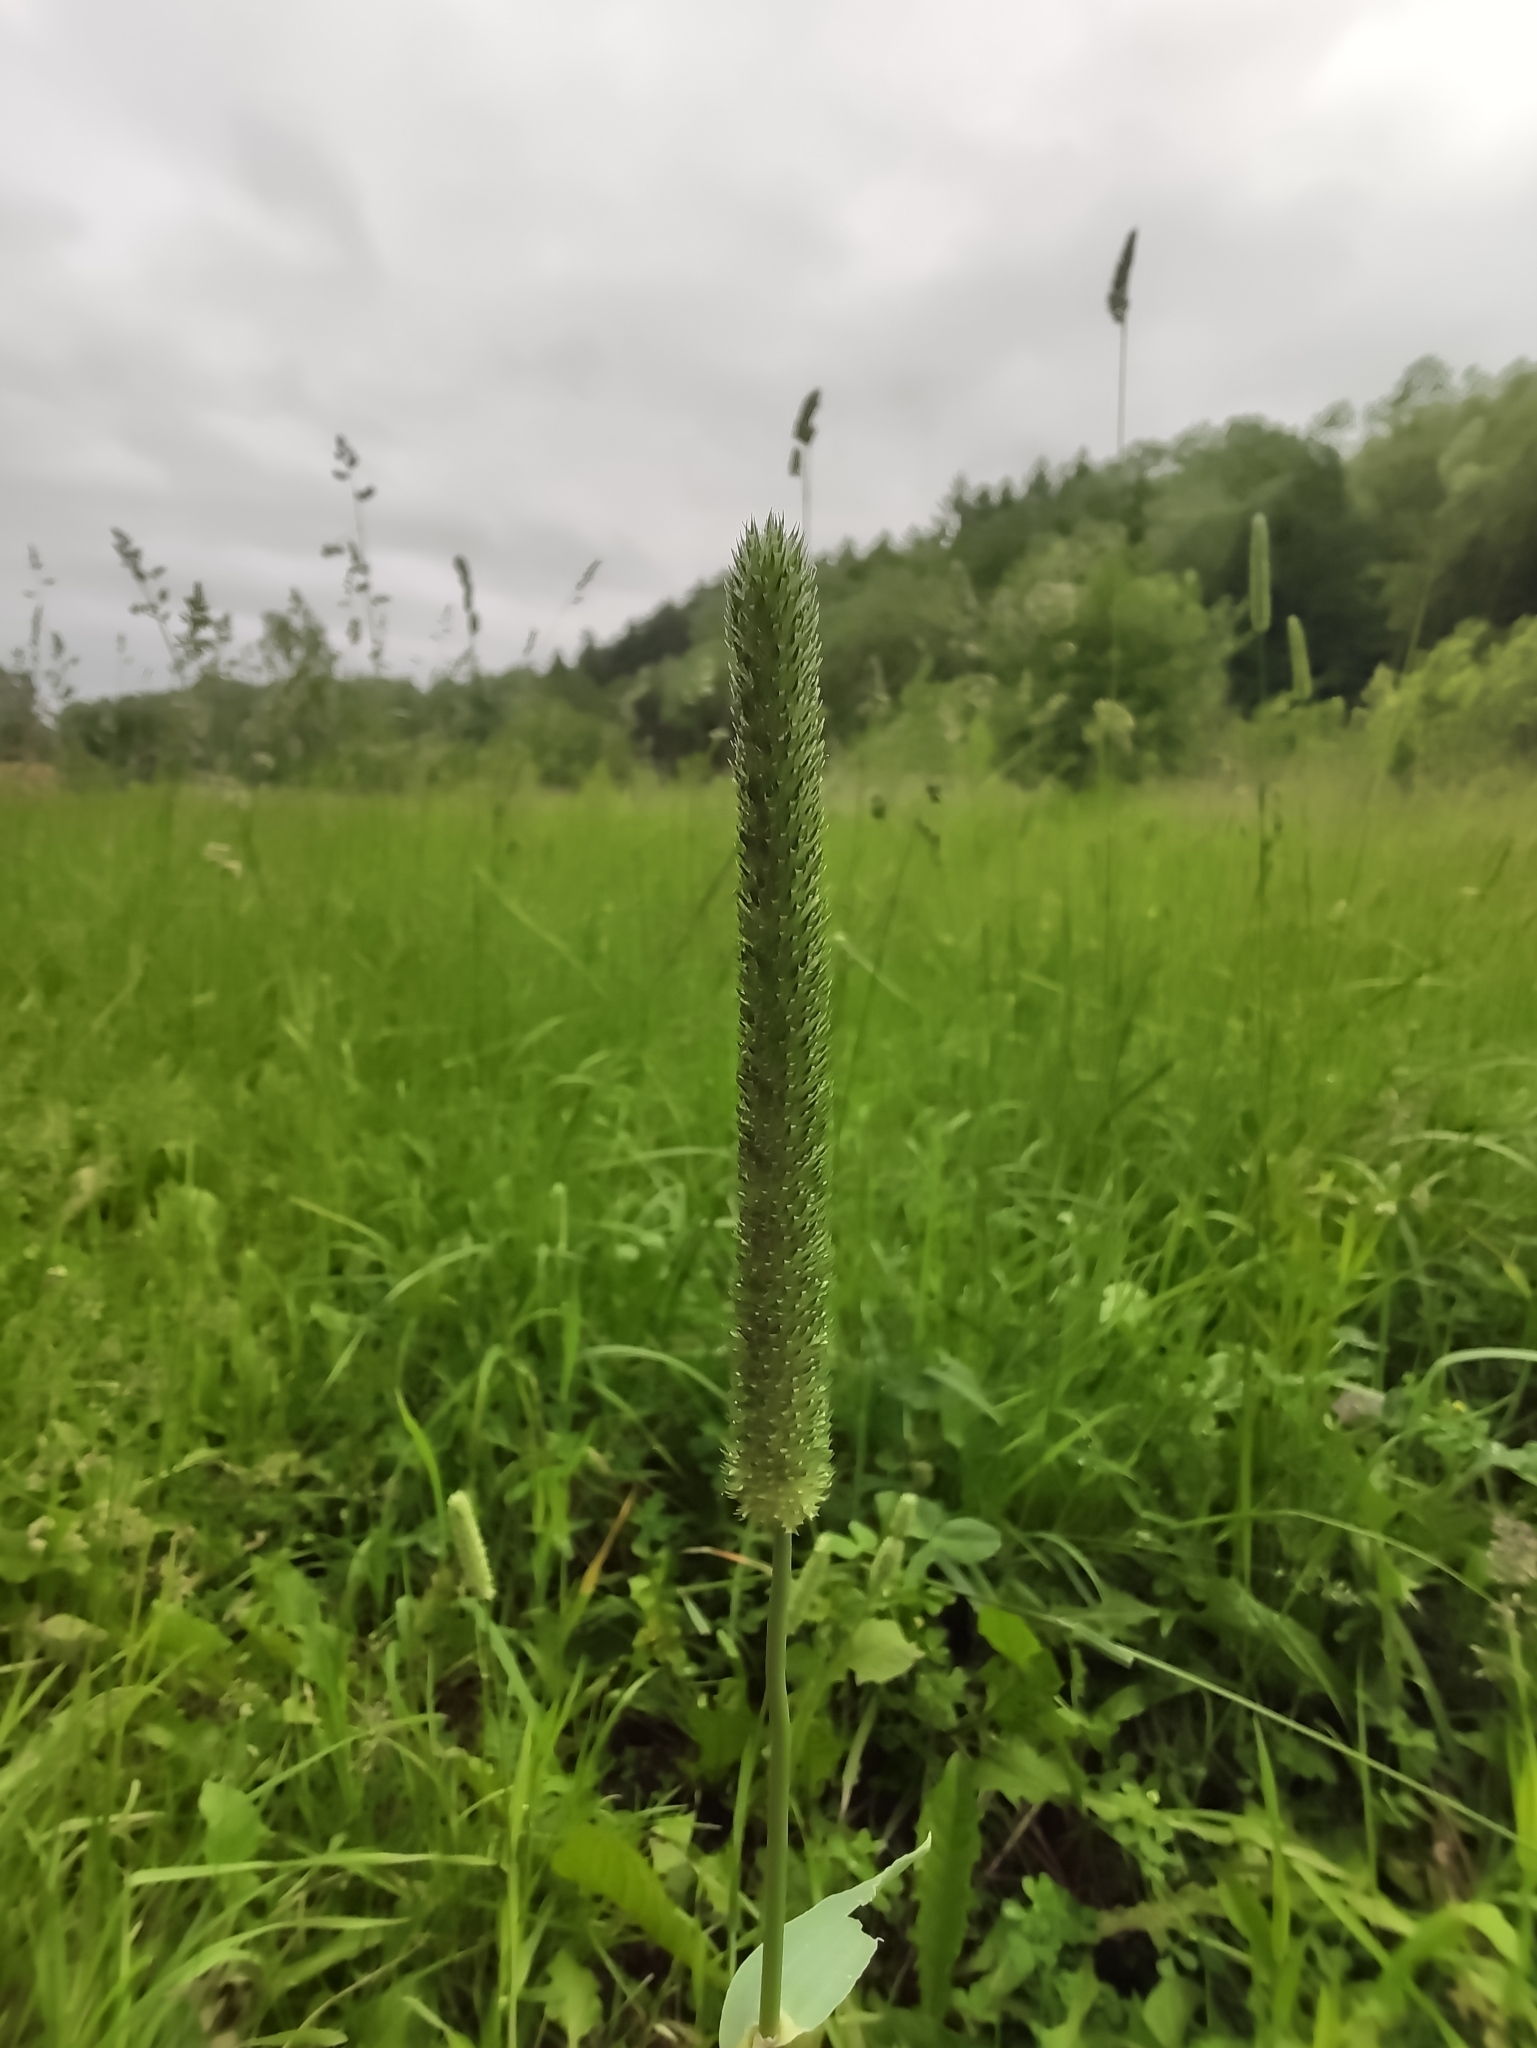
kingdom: Plantae
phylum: Tracheophyta
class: Liliopsida
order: Poales
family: Poaceae
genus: Phleum
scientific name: Phleum pratense
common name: Timothy grass
